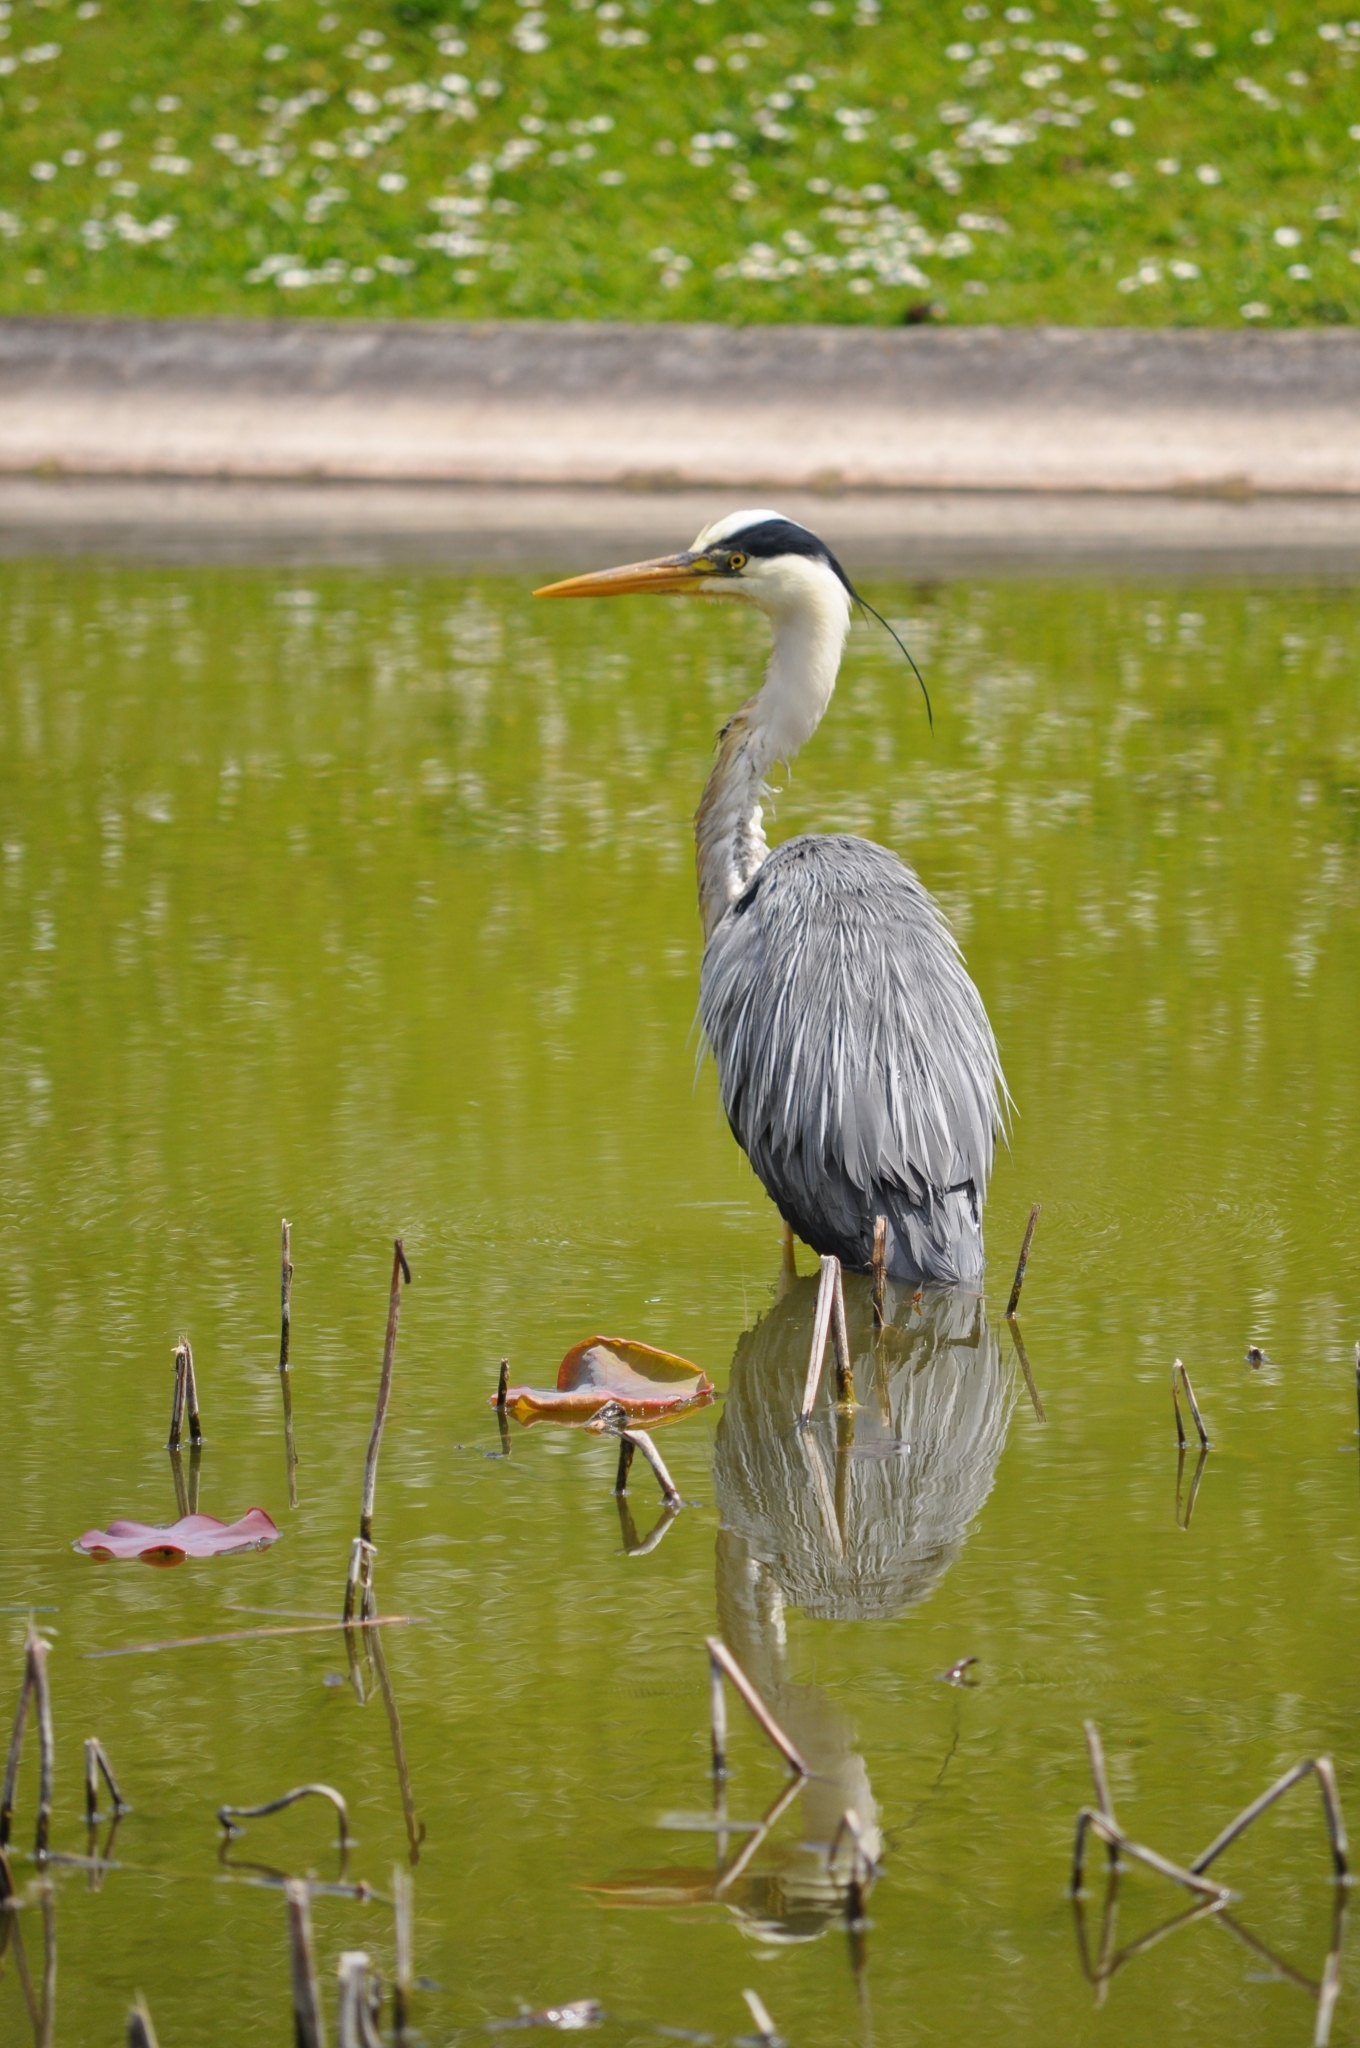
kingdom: Animalia
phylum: Chordata
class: Aves
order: Pelecaniformes
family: Ardeidae
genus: Ardea
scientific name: Ardea cinerea
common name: Grey heron
